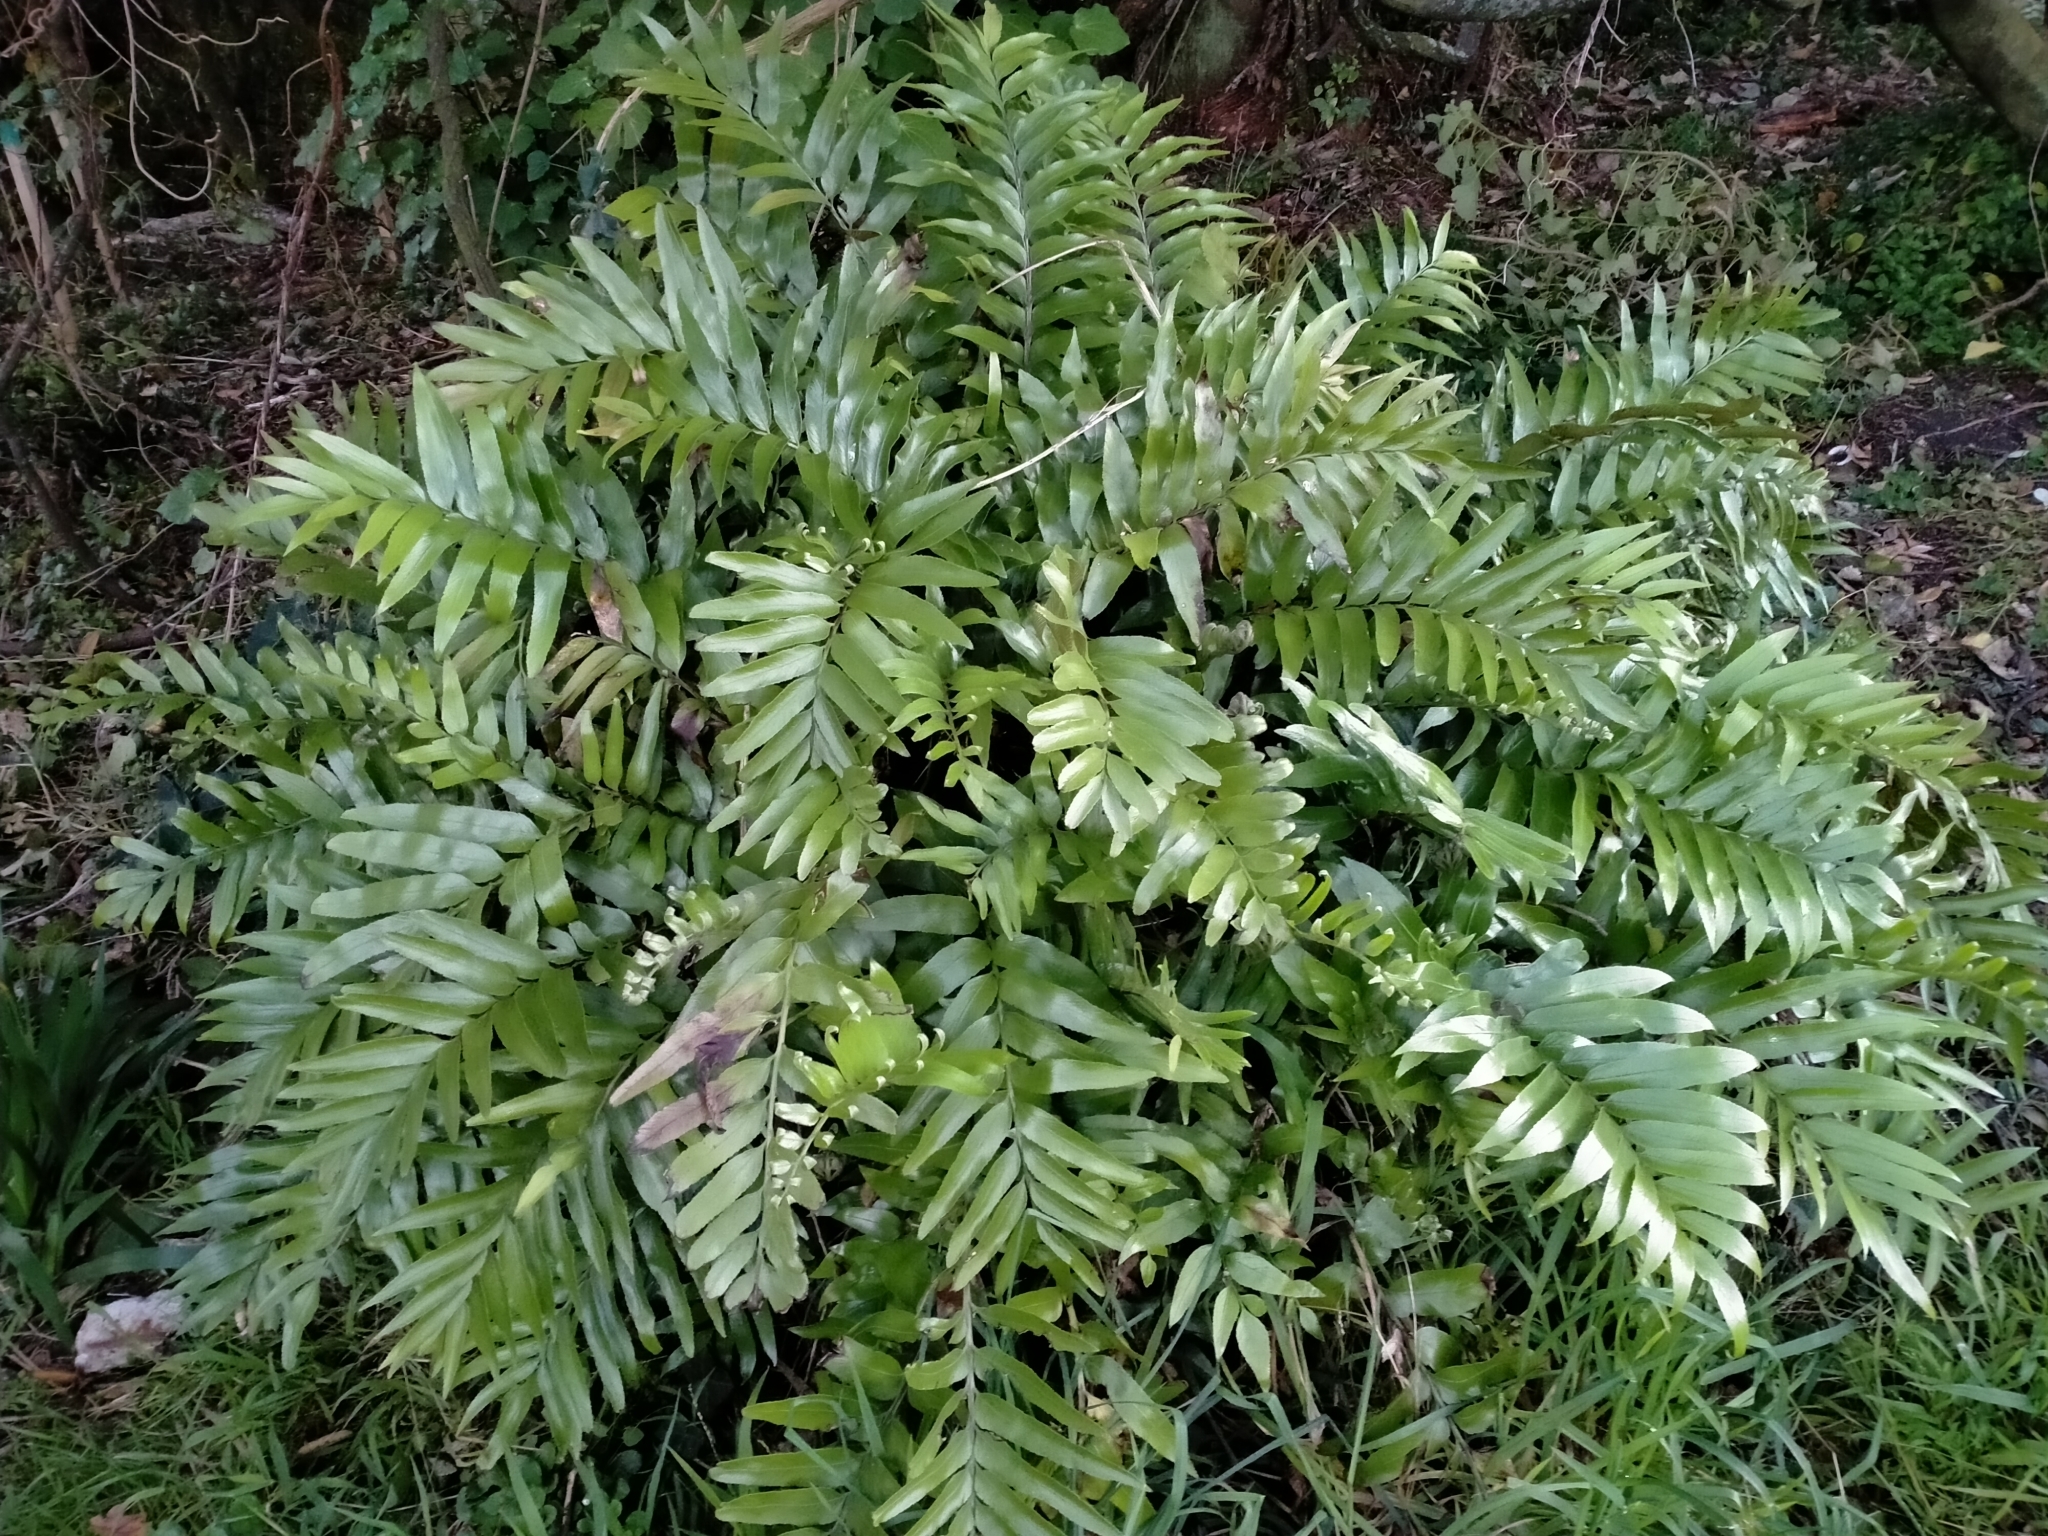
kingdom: Plantae
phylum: Tracheophyta
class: Polypodiopsida
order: Polypodiales
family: Aspleniaceae
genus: Asplenium
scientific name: Asplenium oblongifolium
